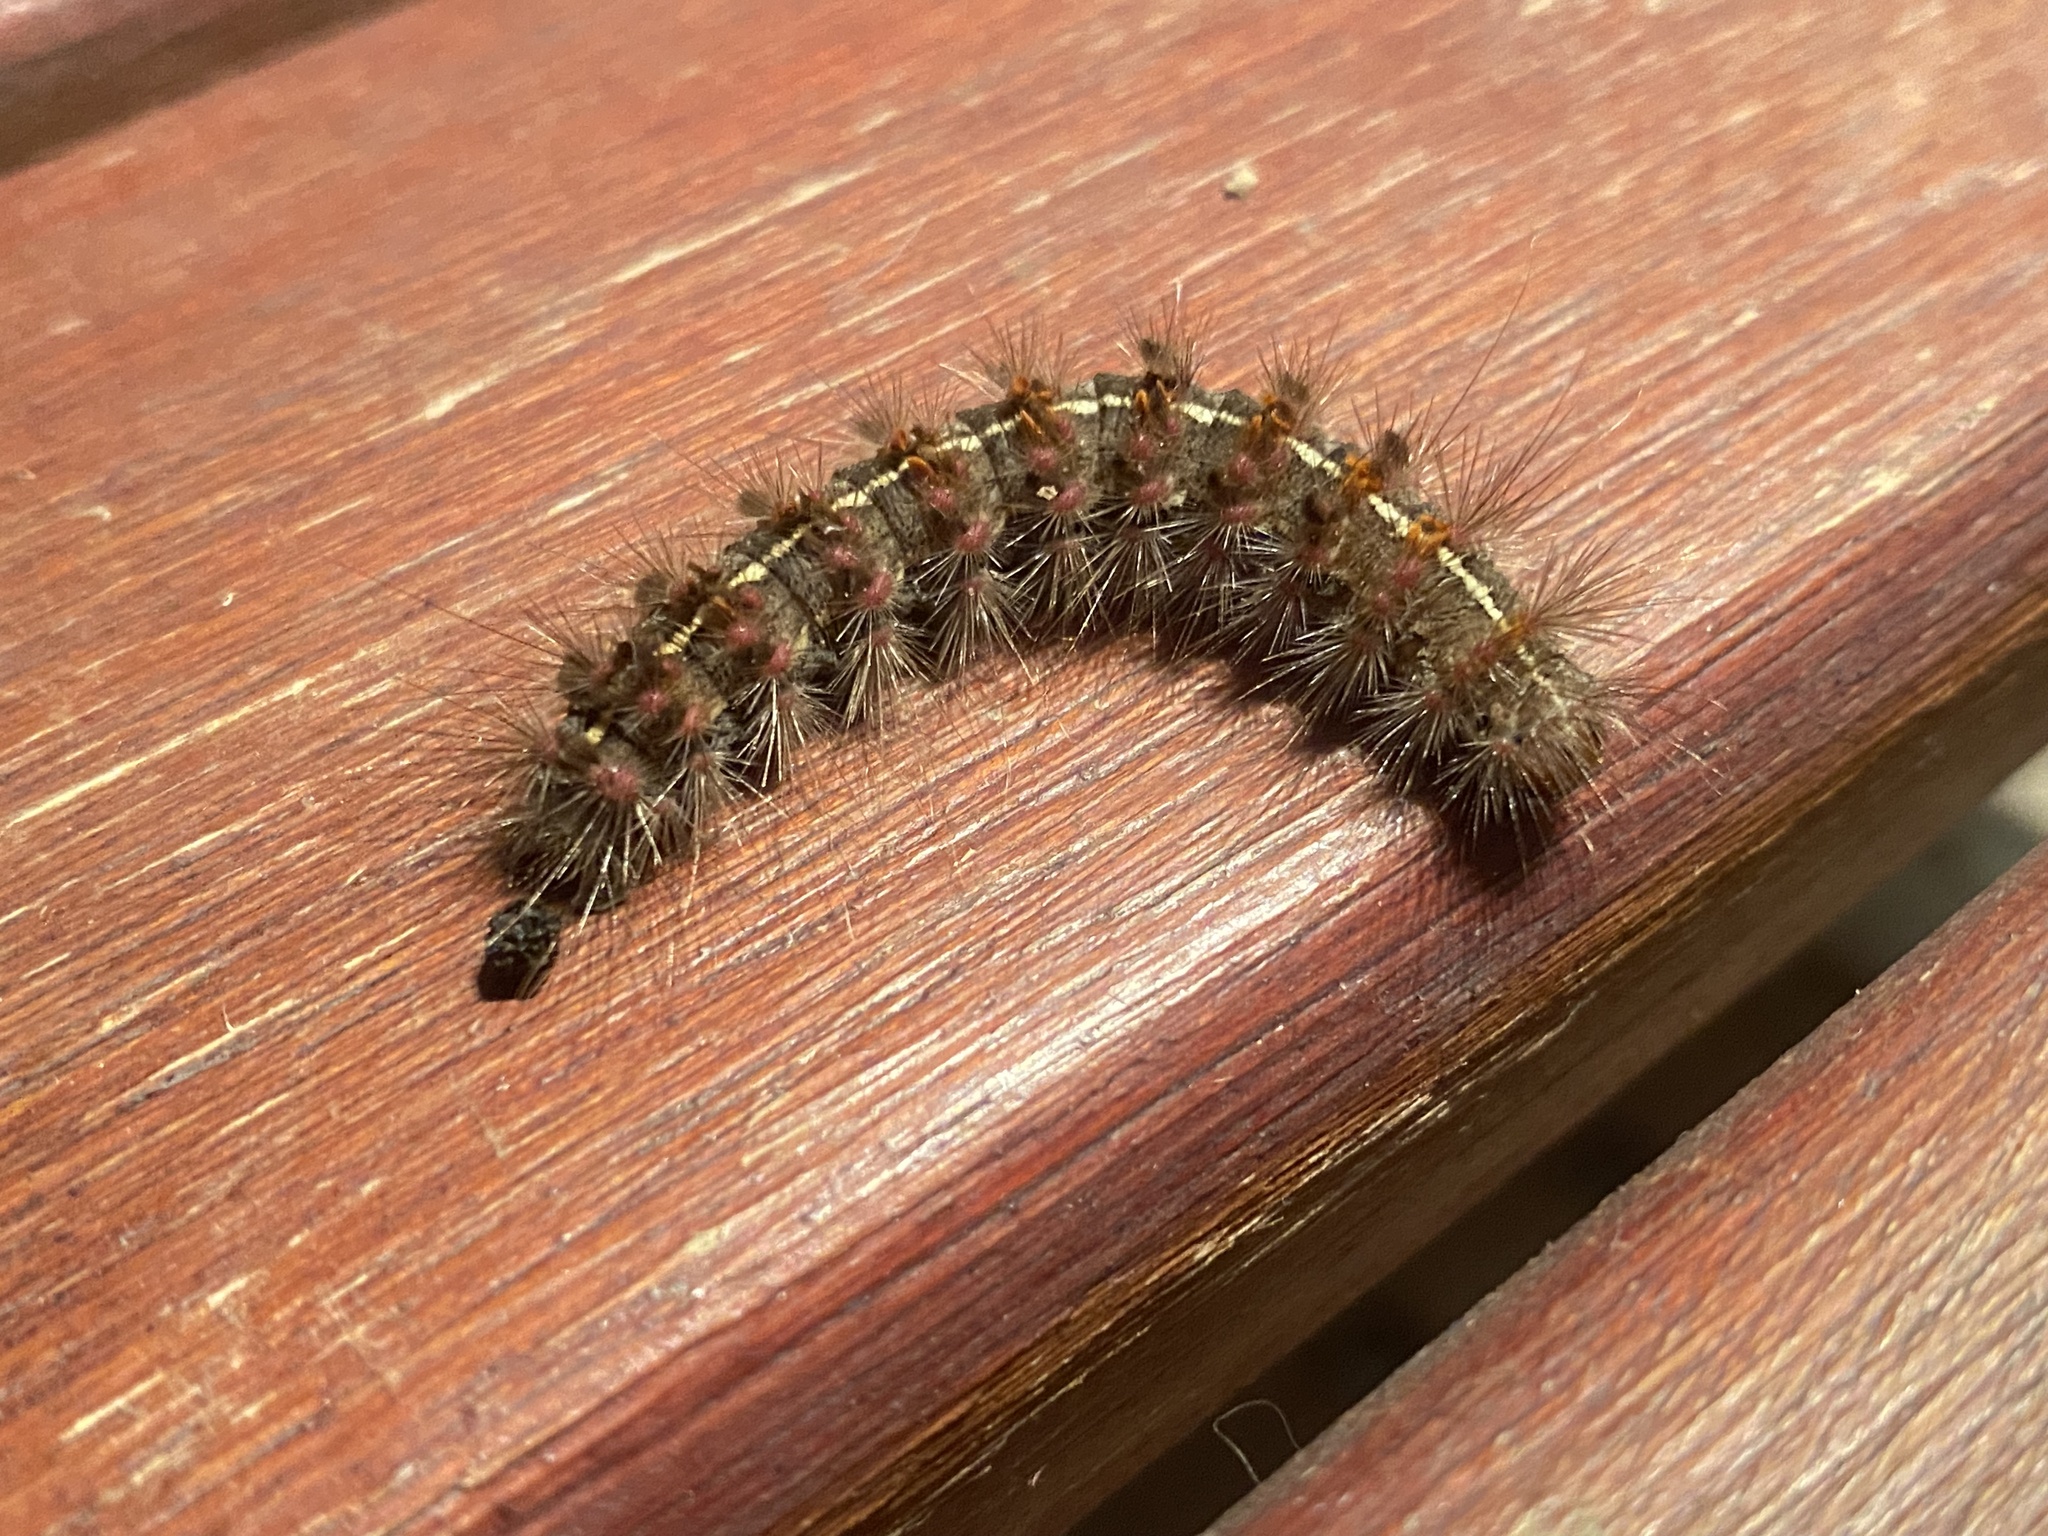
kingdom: Animalia
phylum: Arthropoda
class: Insecta
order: Lepidoptera
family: Erebidae
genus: Paracles
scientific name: Paracles fusca
